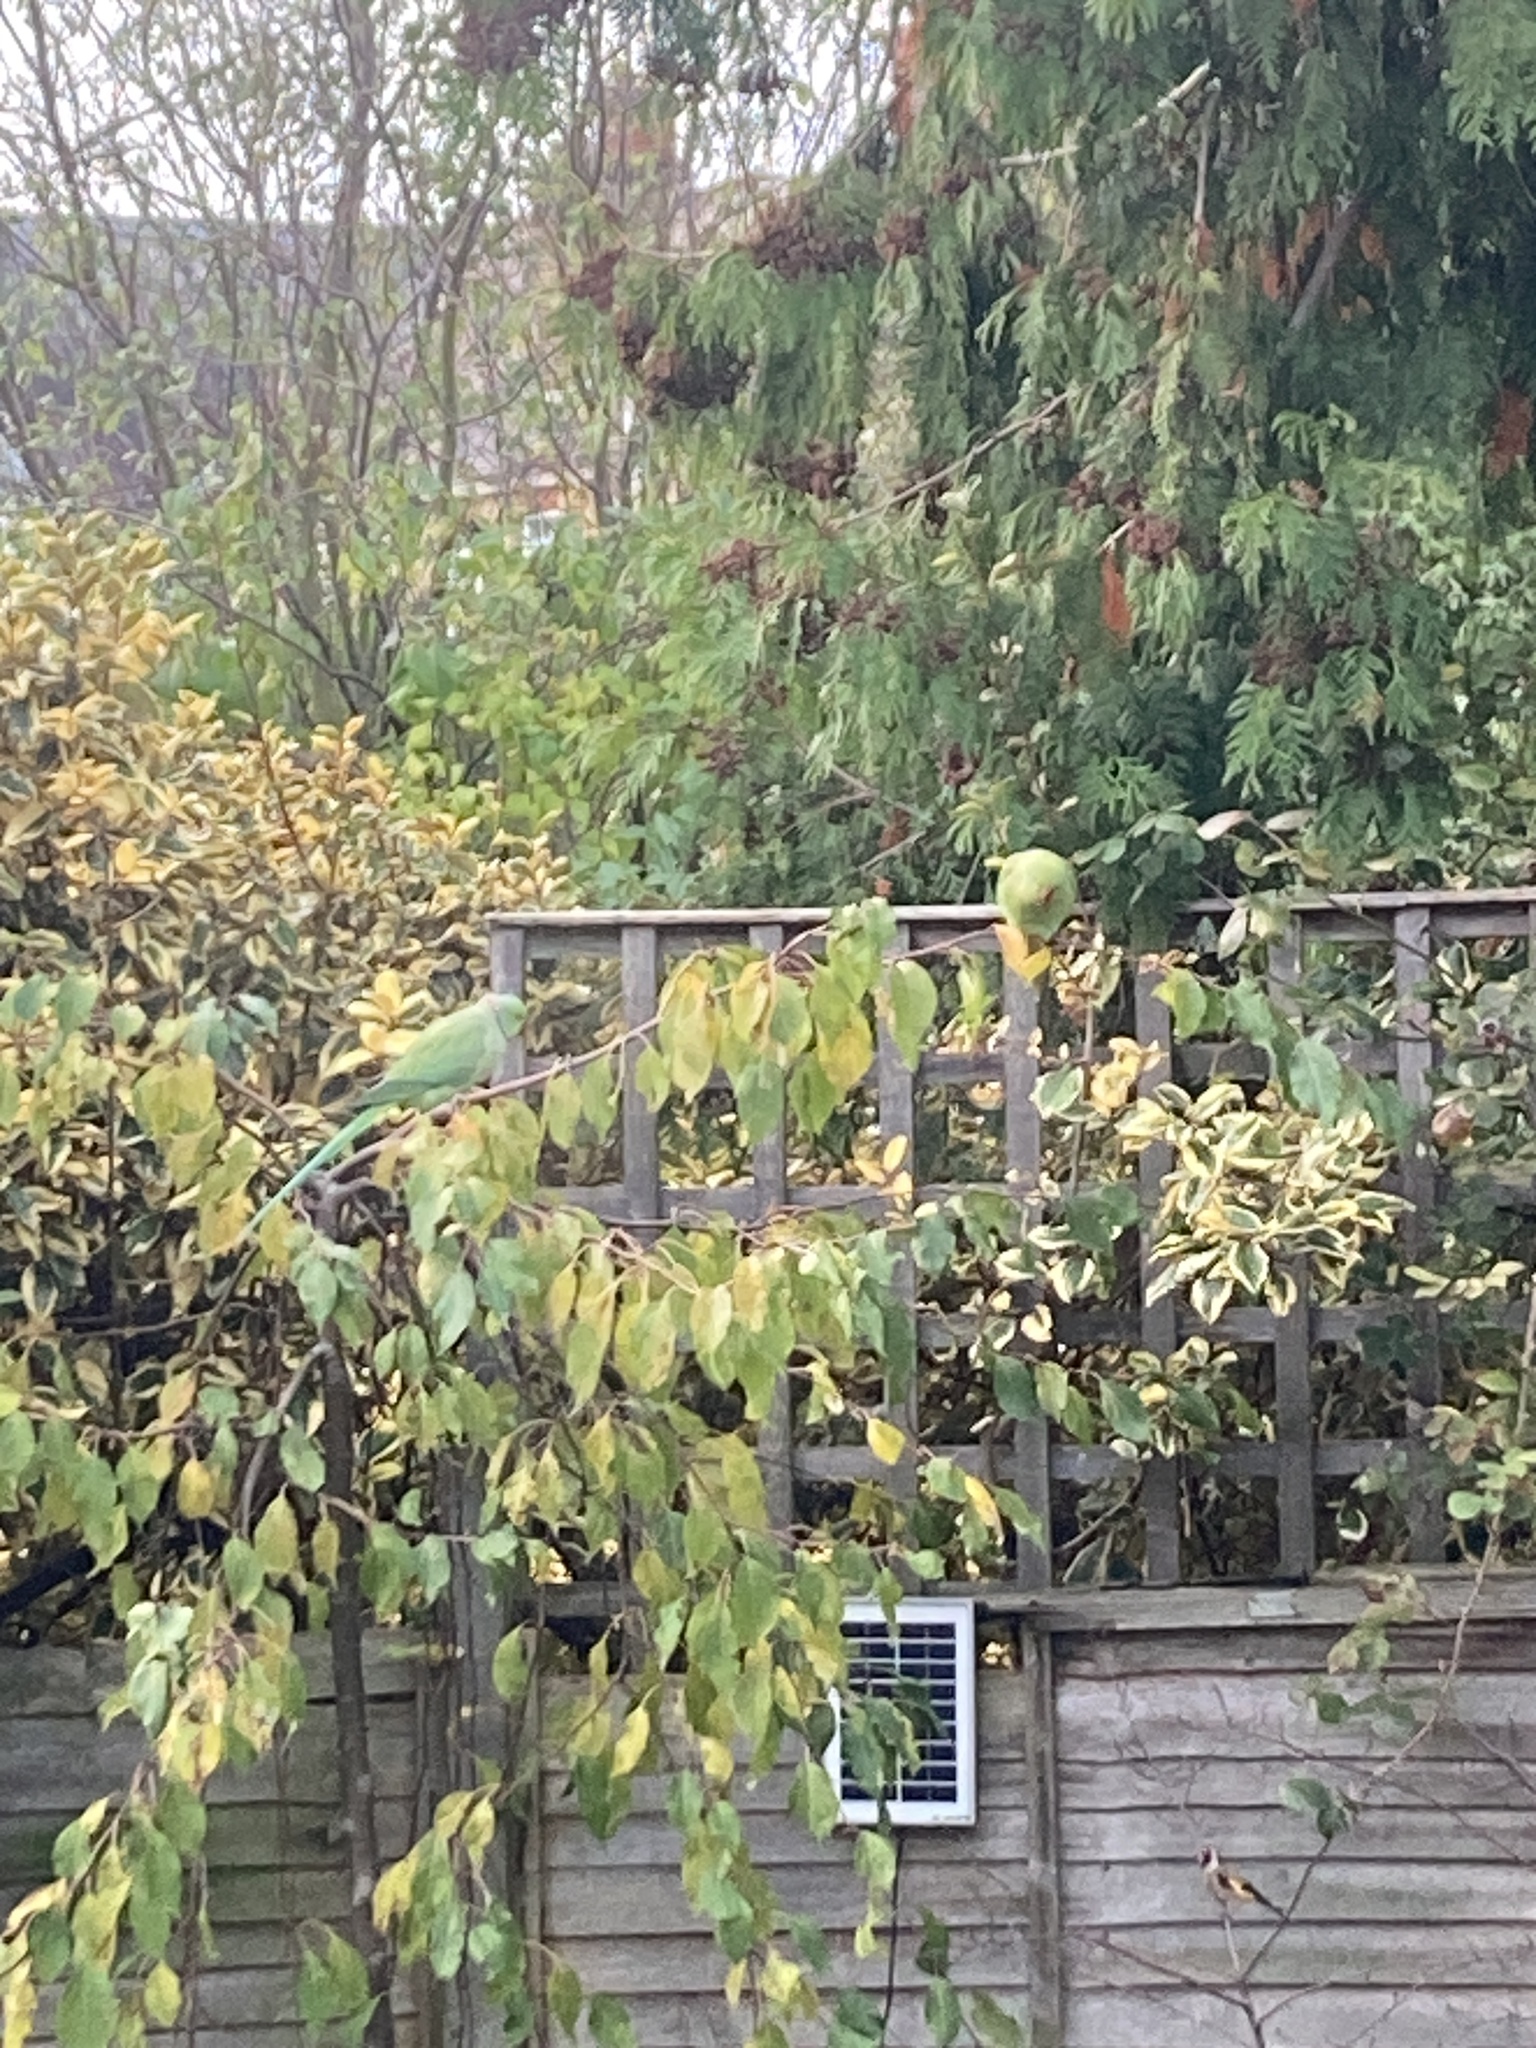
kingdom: Animalia
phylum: Chordata
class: Aves
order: Psittaciformes
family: Psittacidae
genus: Psittacula
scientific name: Psittacula krameri
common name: Rose-ringed parakeet
